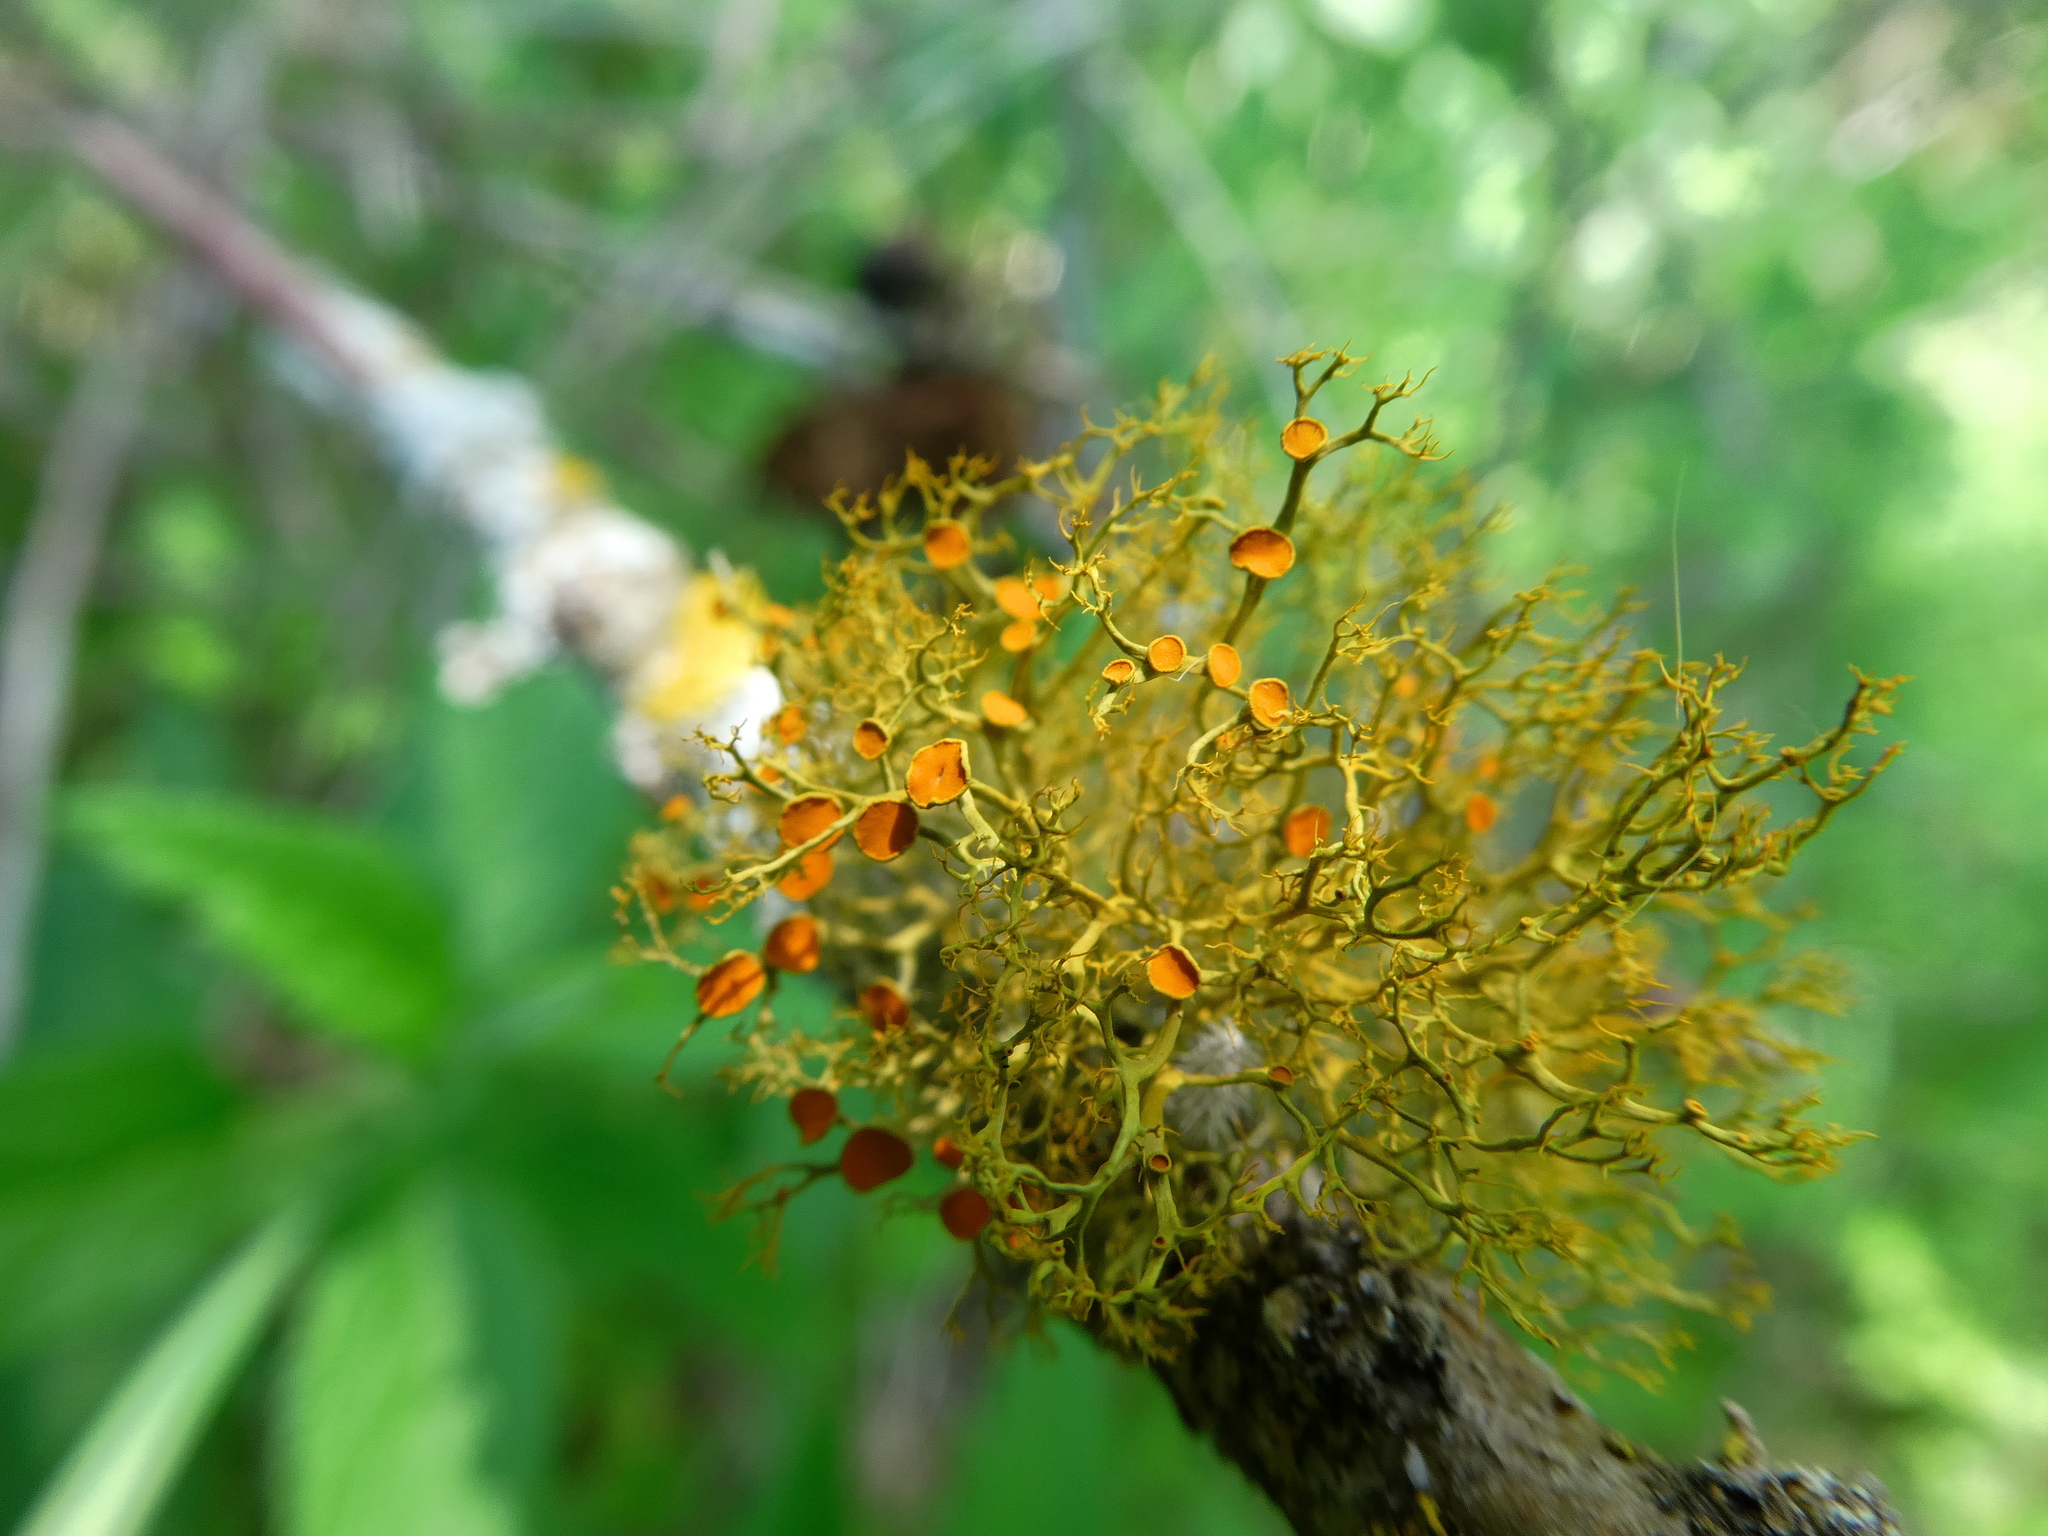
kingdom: Fungi
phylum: Ascomycota
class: Lecanoromycetes
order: Teloschistales
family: Teloschistaceae
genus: Teloschistes
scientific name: Teloschistes exilis
